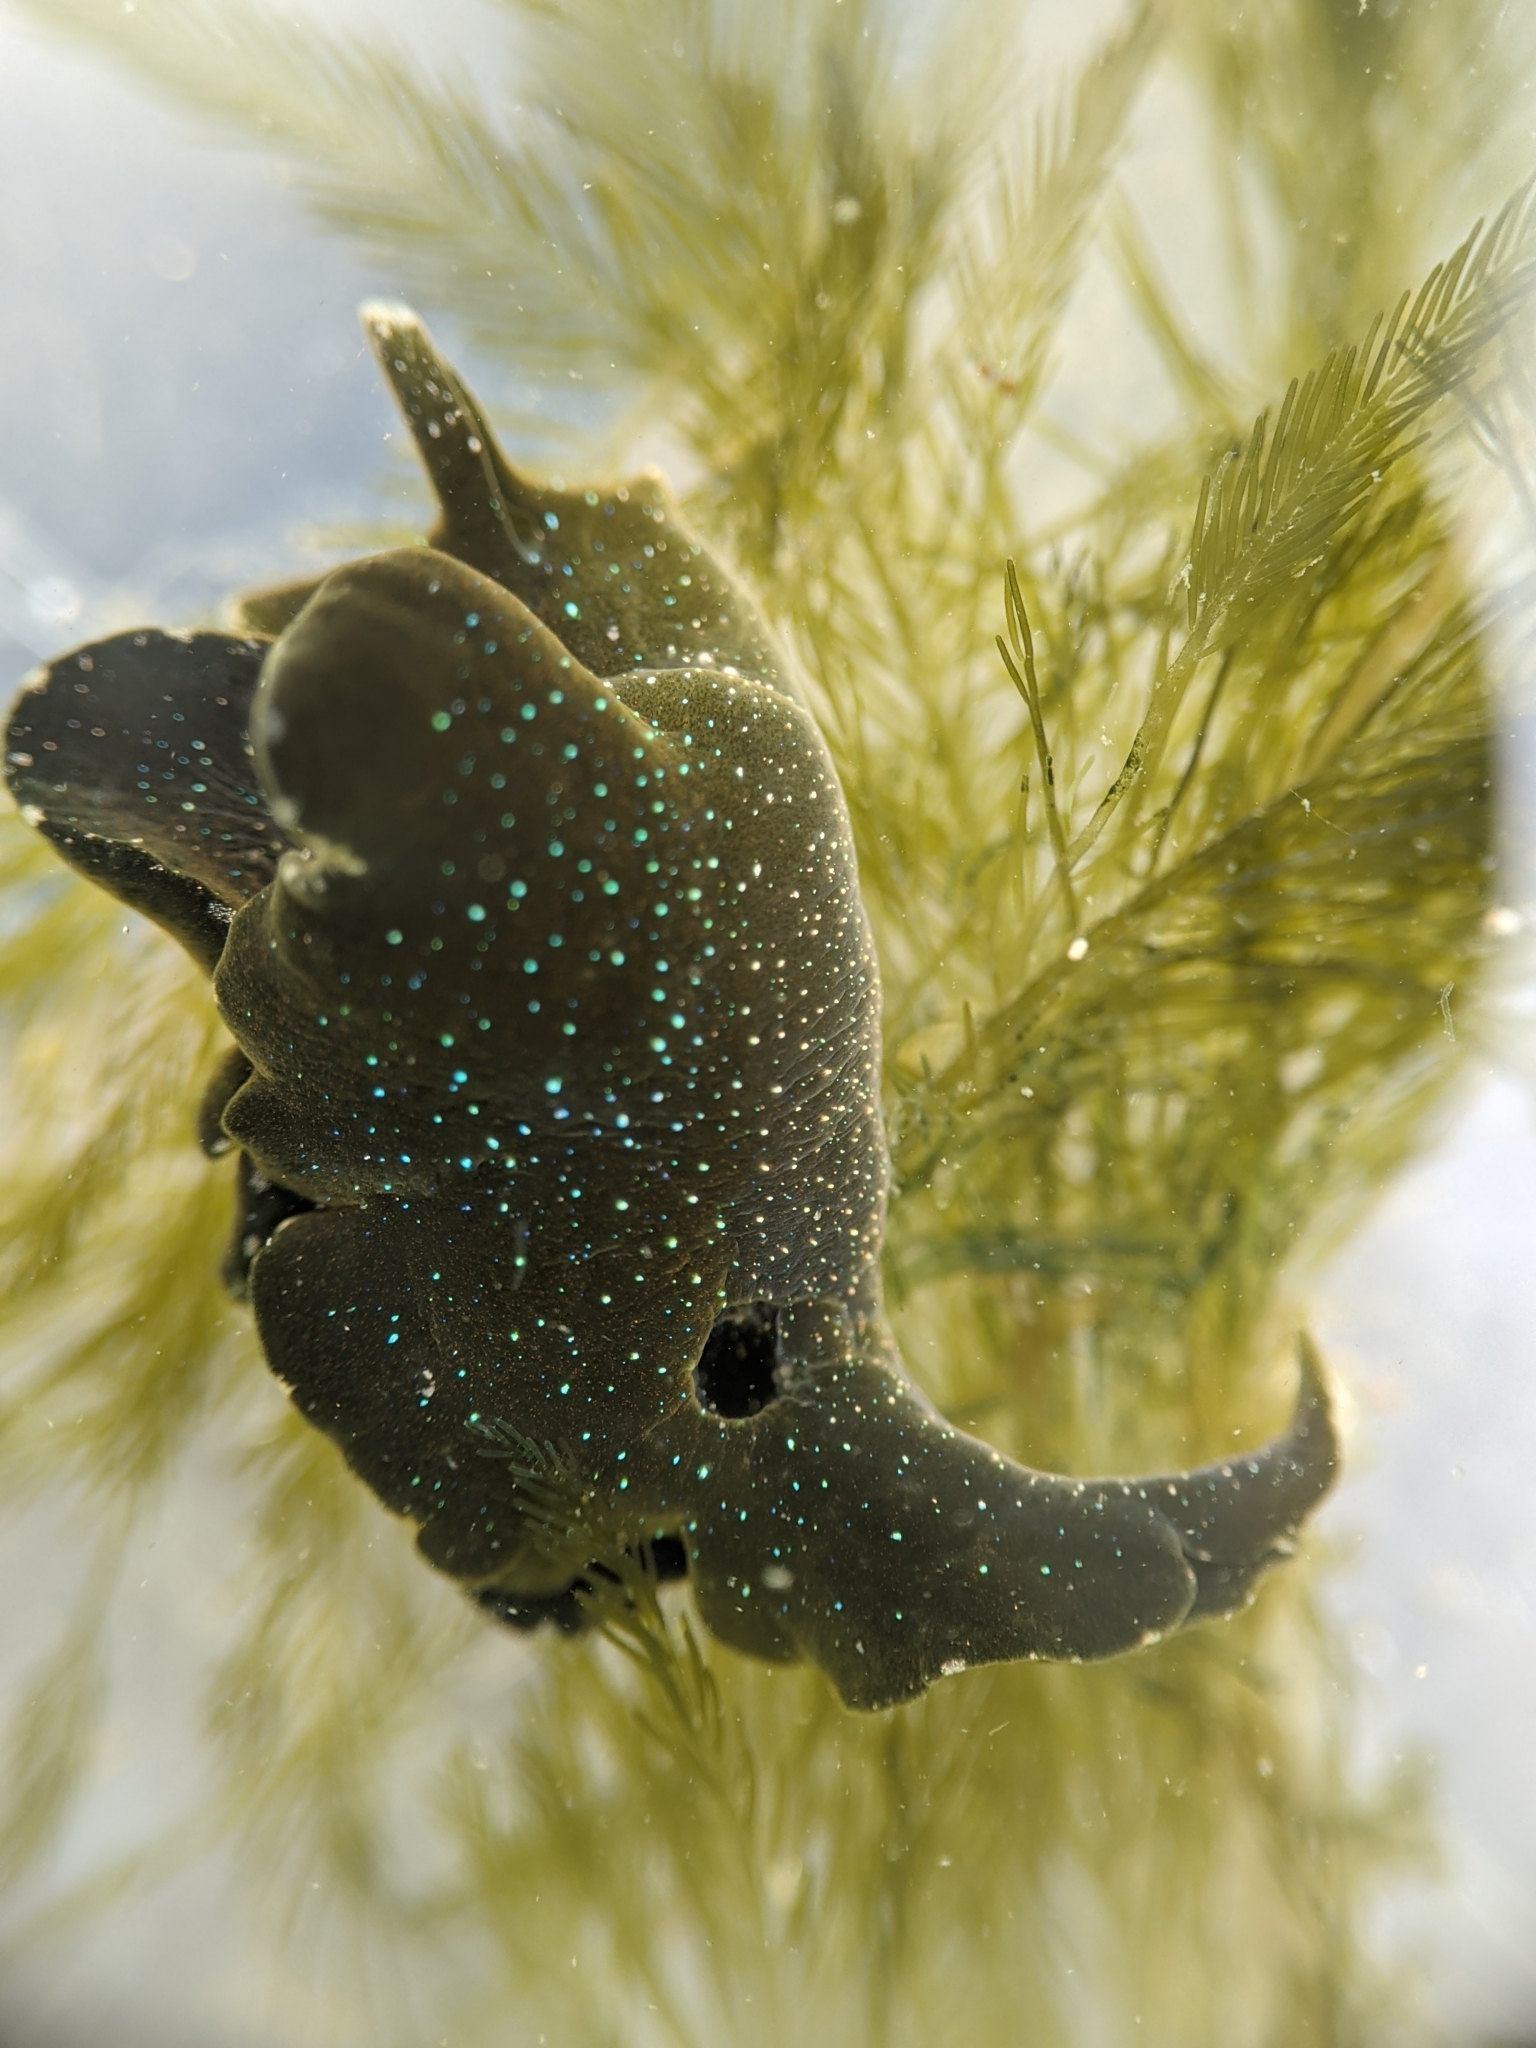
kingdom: Animalia
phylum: Mollusca
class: Gastropoda
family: Plakobranchidae
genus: Elysia
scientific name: Elysia hedgpethi
